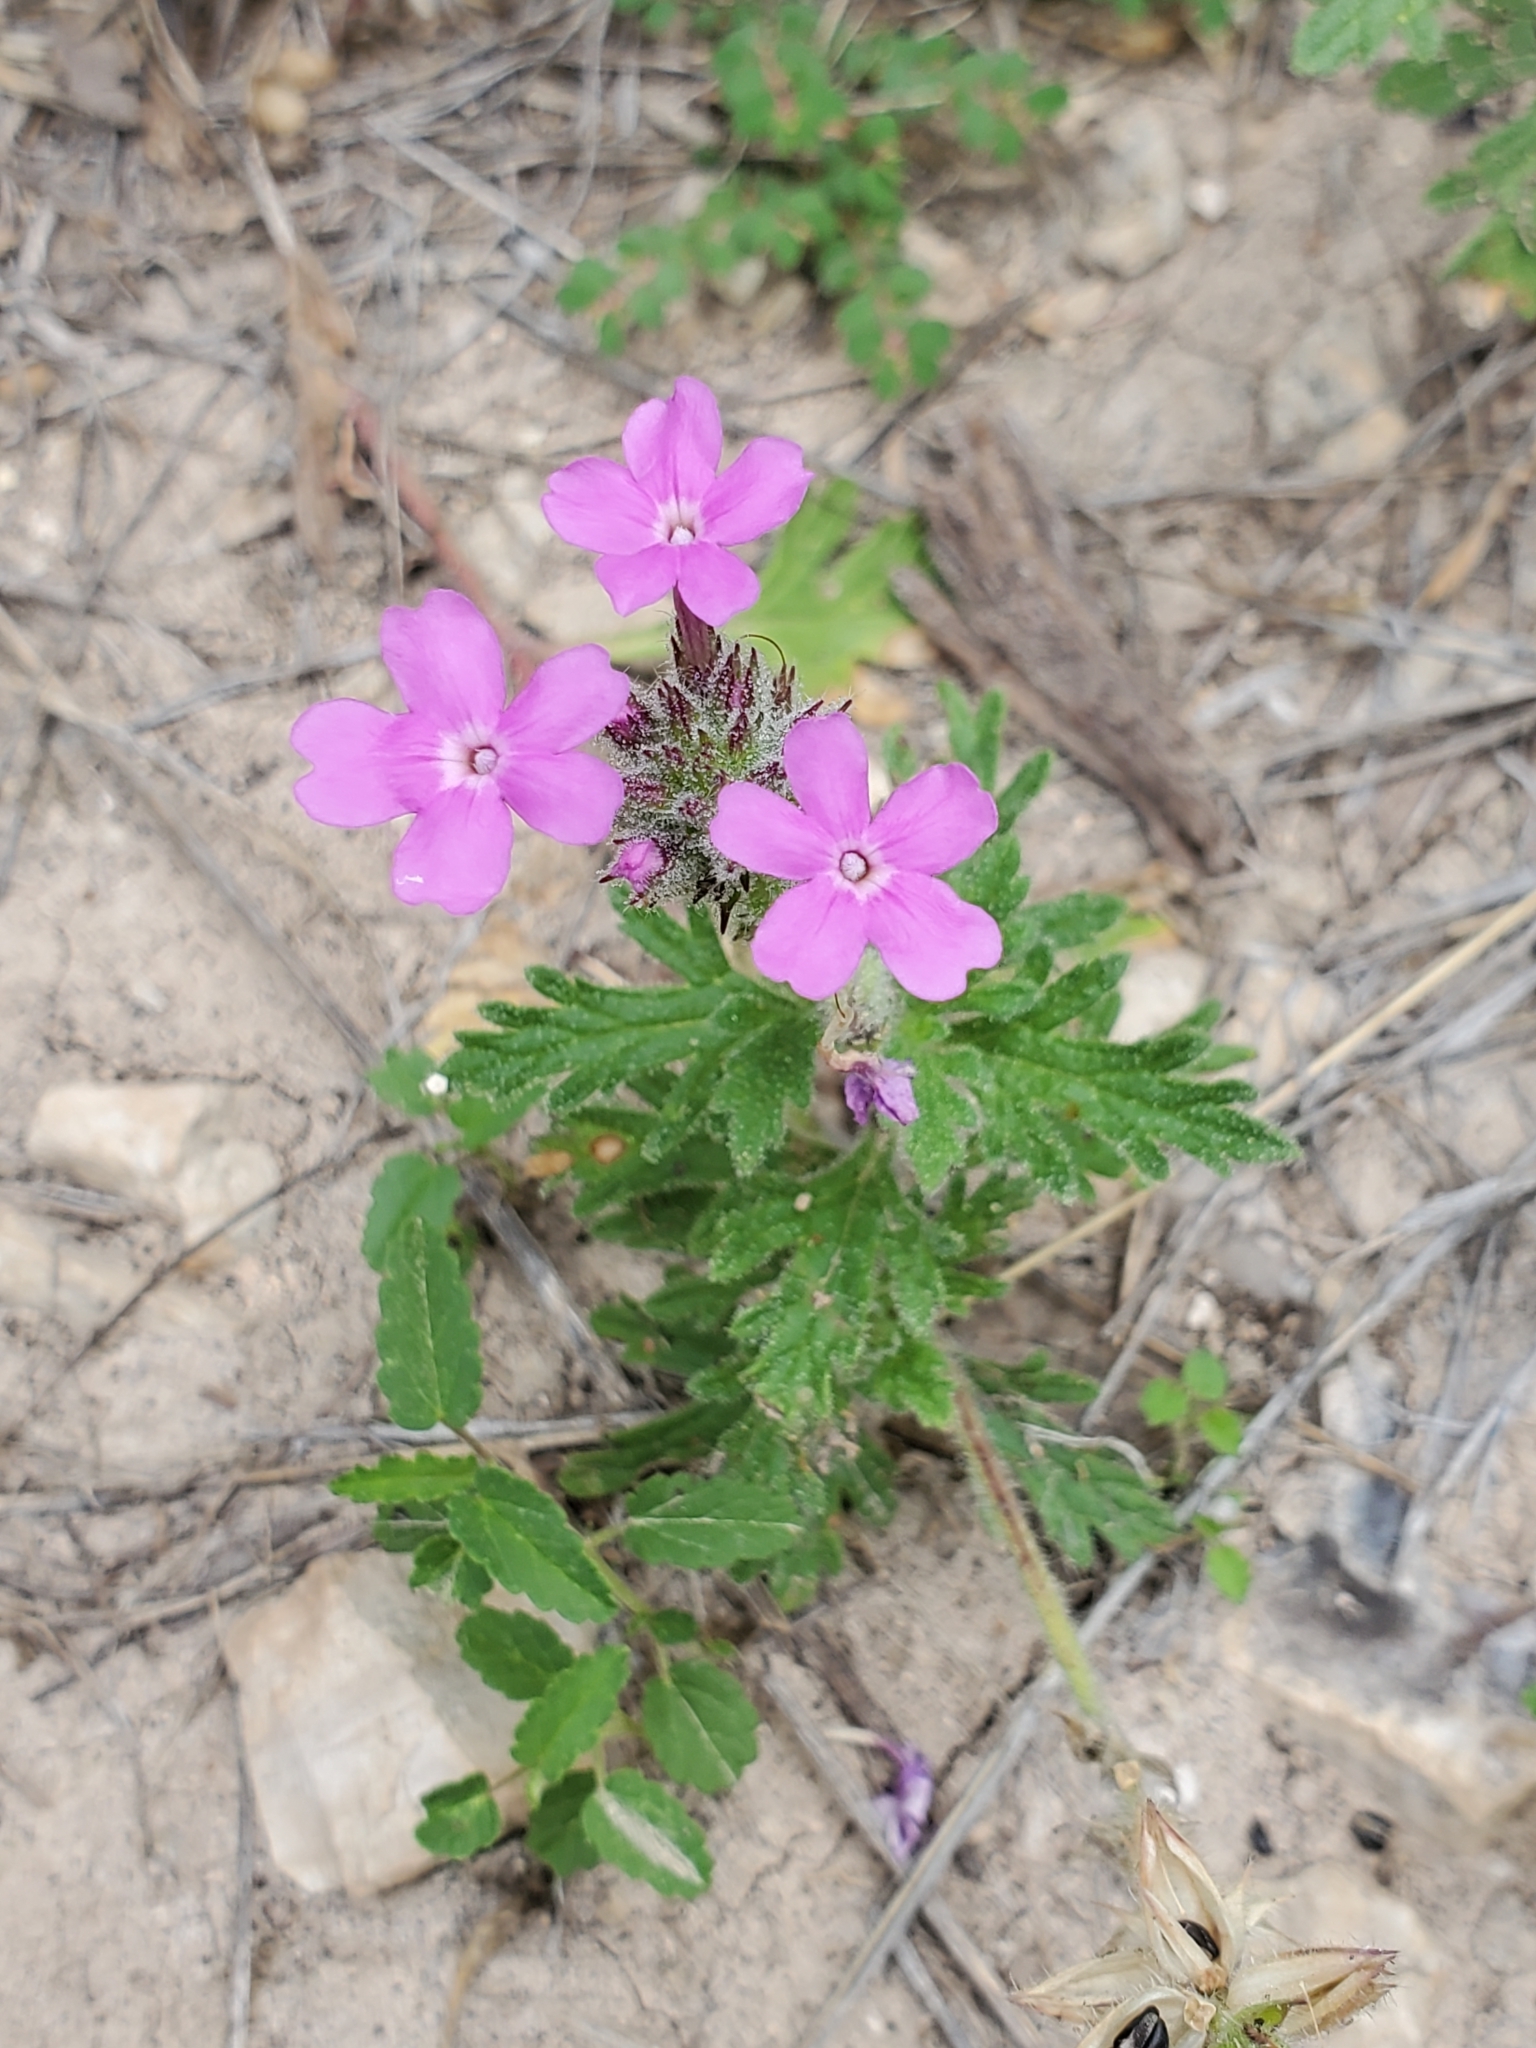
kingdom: Plantae
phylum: Tracheophyta
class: Magnoliopsida
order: Lamiales
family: Verbenaceae
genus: Verbena
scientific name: Verbena tumidula
